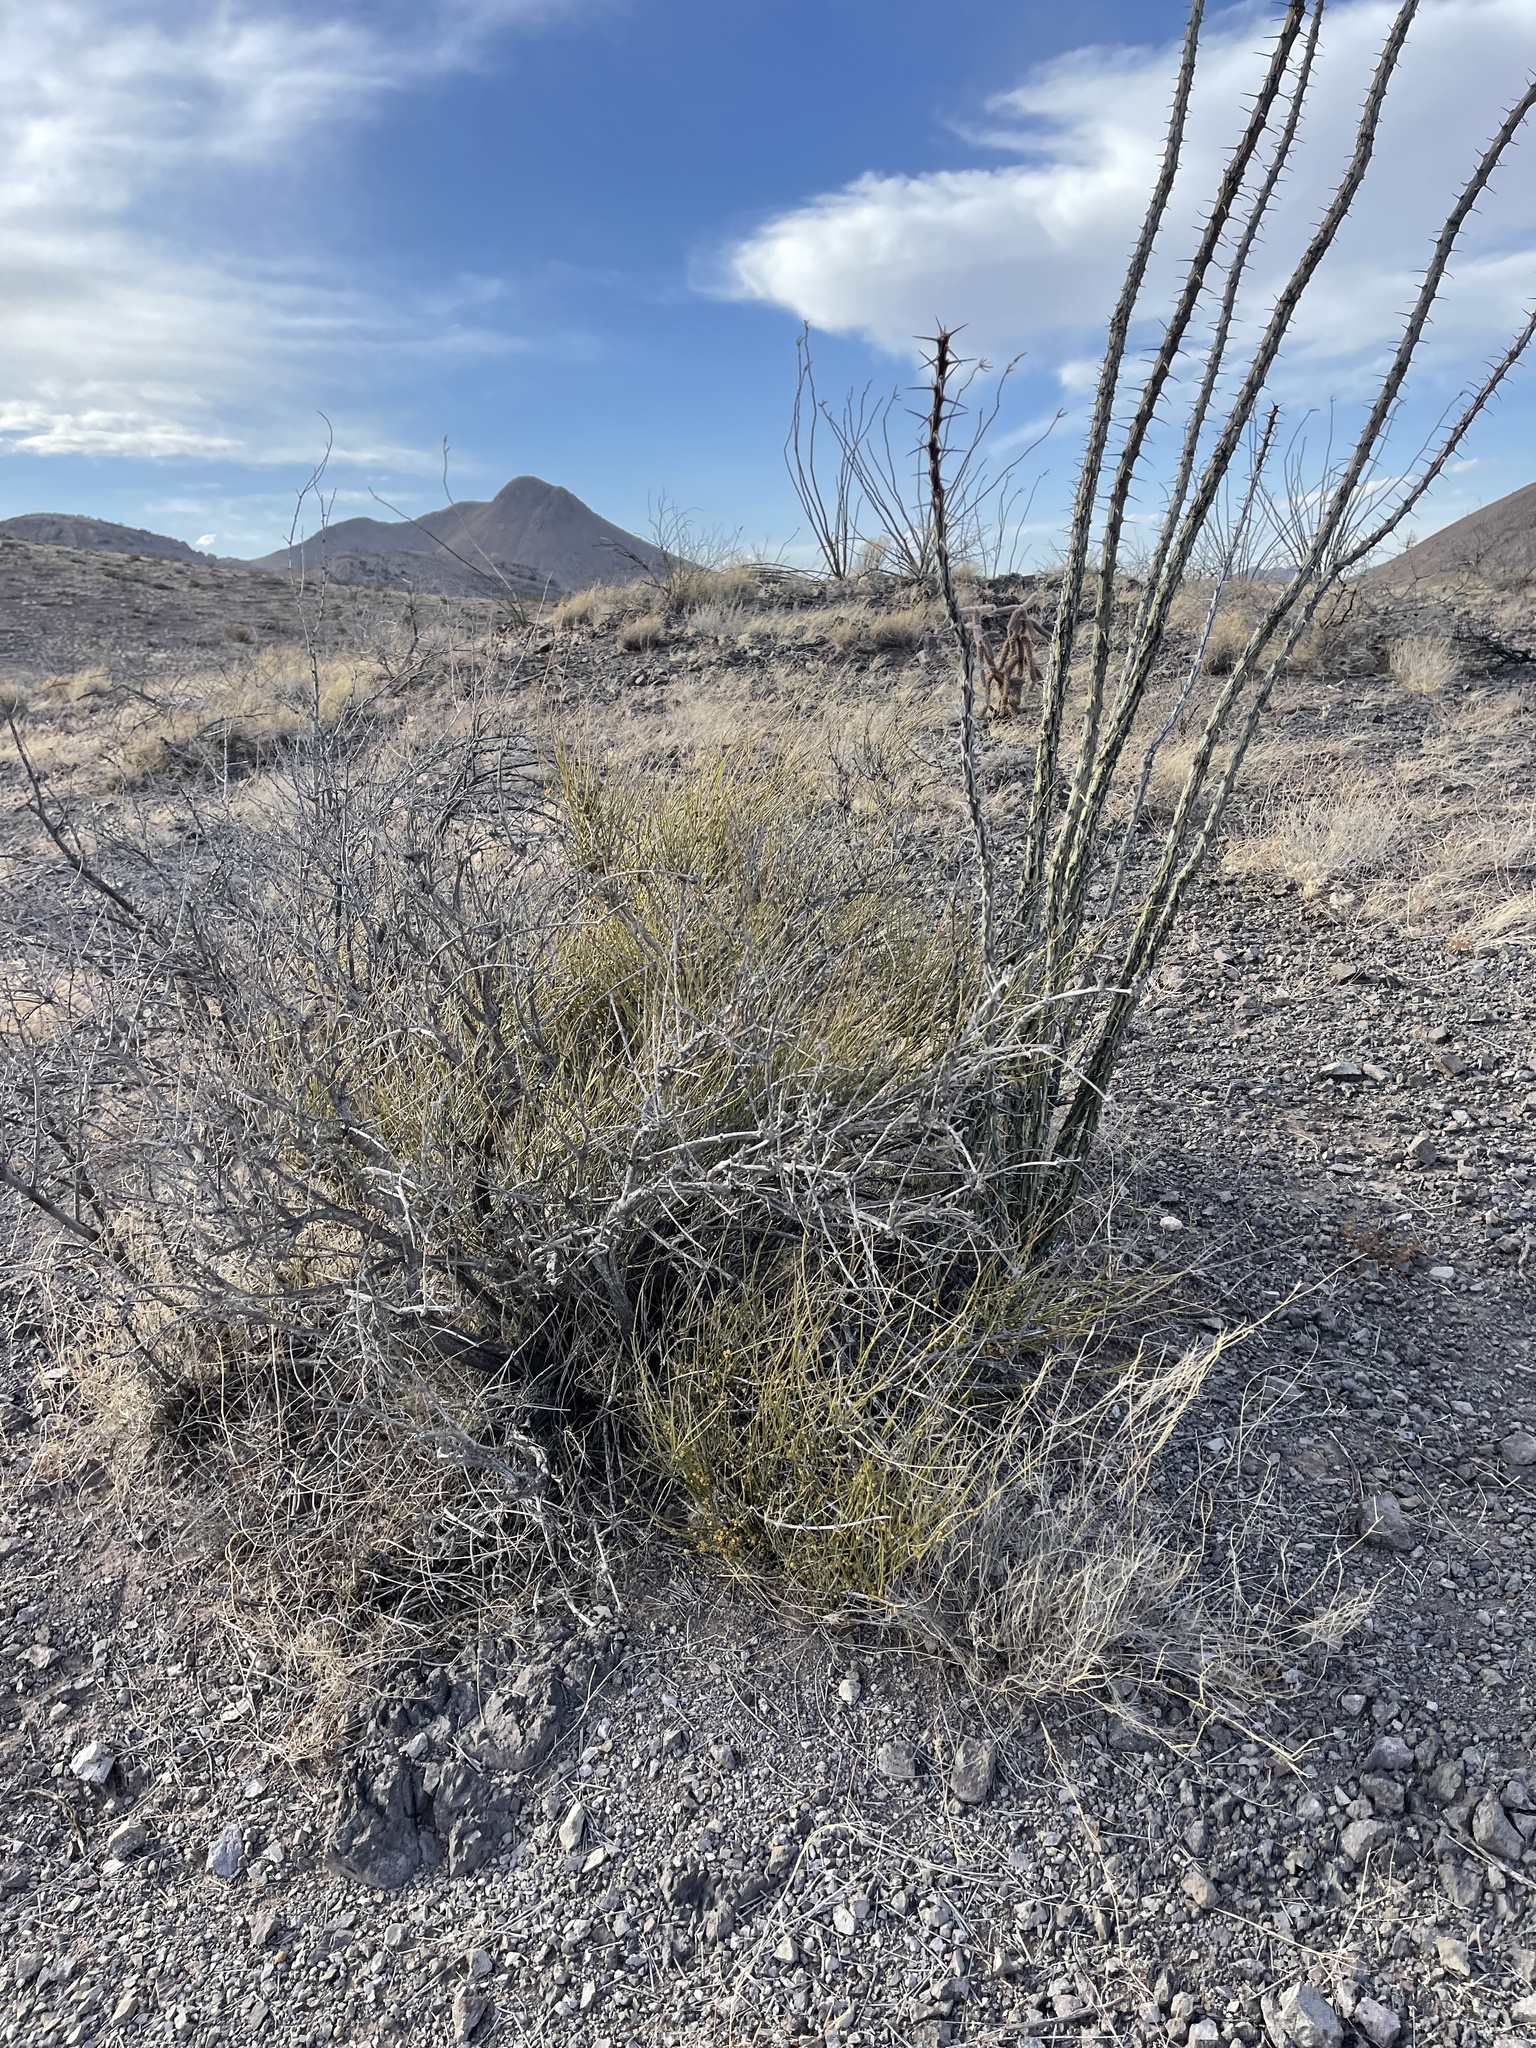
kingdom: Plantae
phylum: Tracheophyta
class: Gnetopsida
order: Ephedrales
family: Ephedraceae
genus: Ephedra
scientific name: Ephedra trifurca
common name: Mexican-tea
